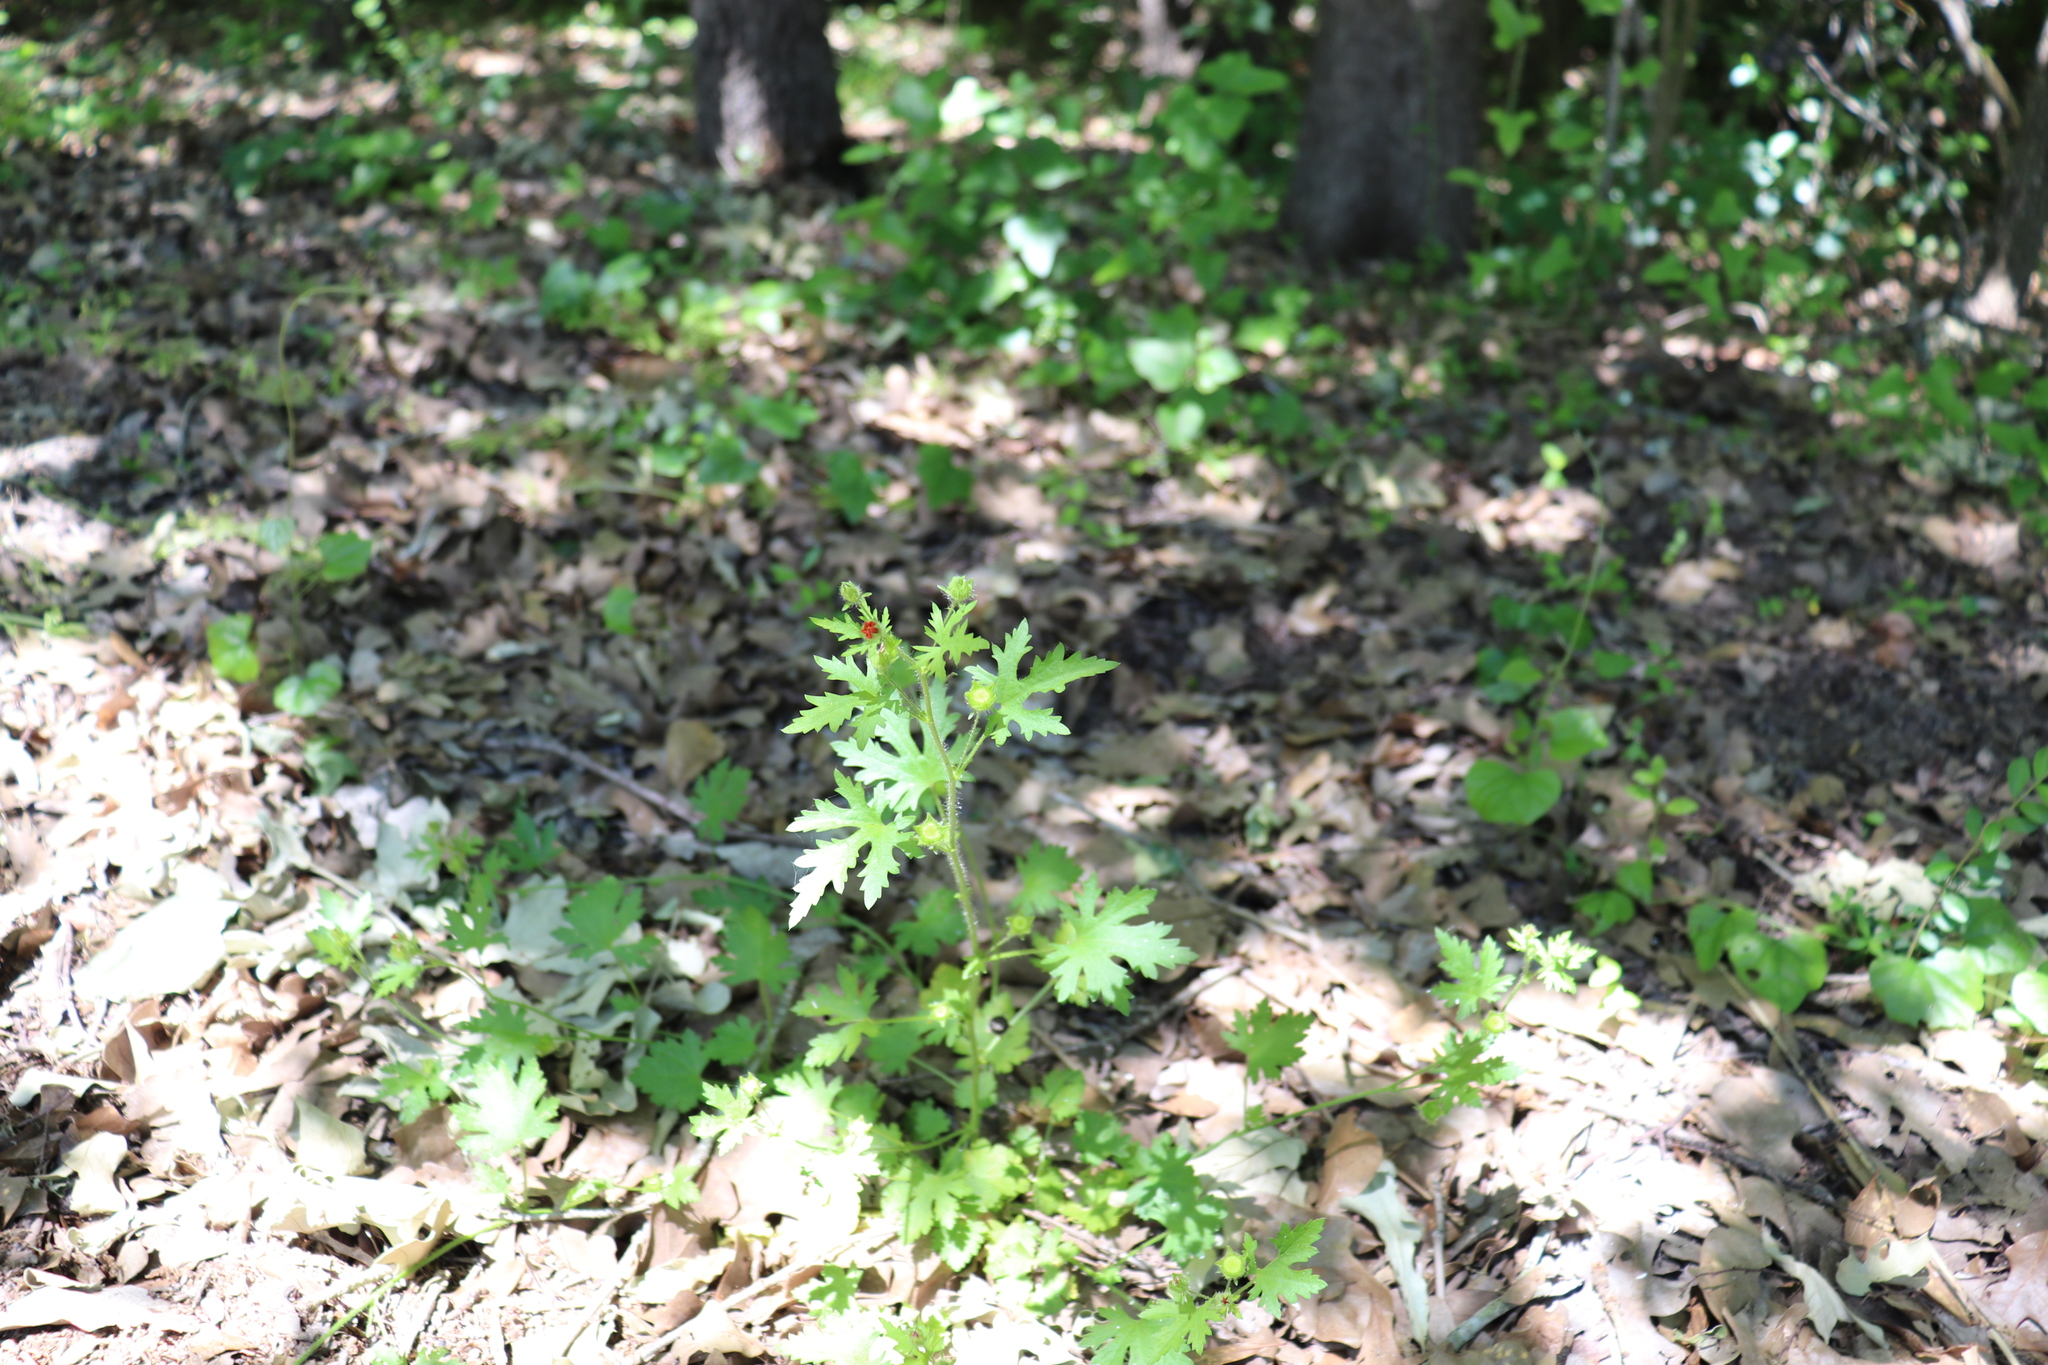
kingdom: Plantae
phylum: Tracheophyta
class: Magnoliopsida
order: Malvales
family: Malvaceae
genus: Modiola
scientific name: Modiola caroliniana
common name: Carolina bristlemallow
